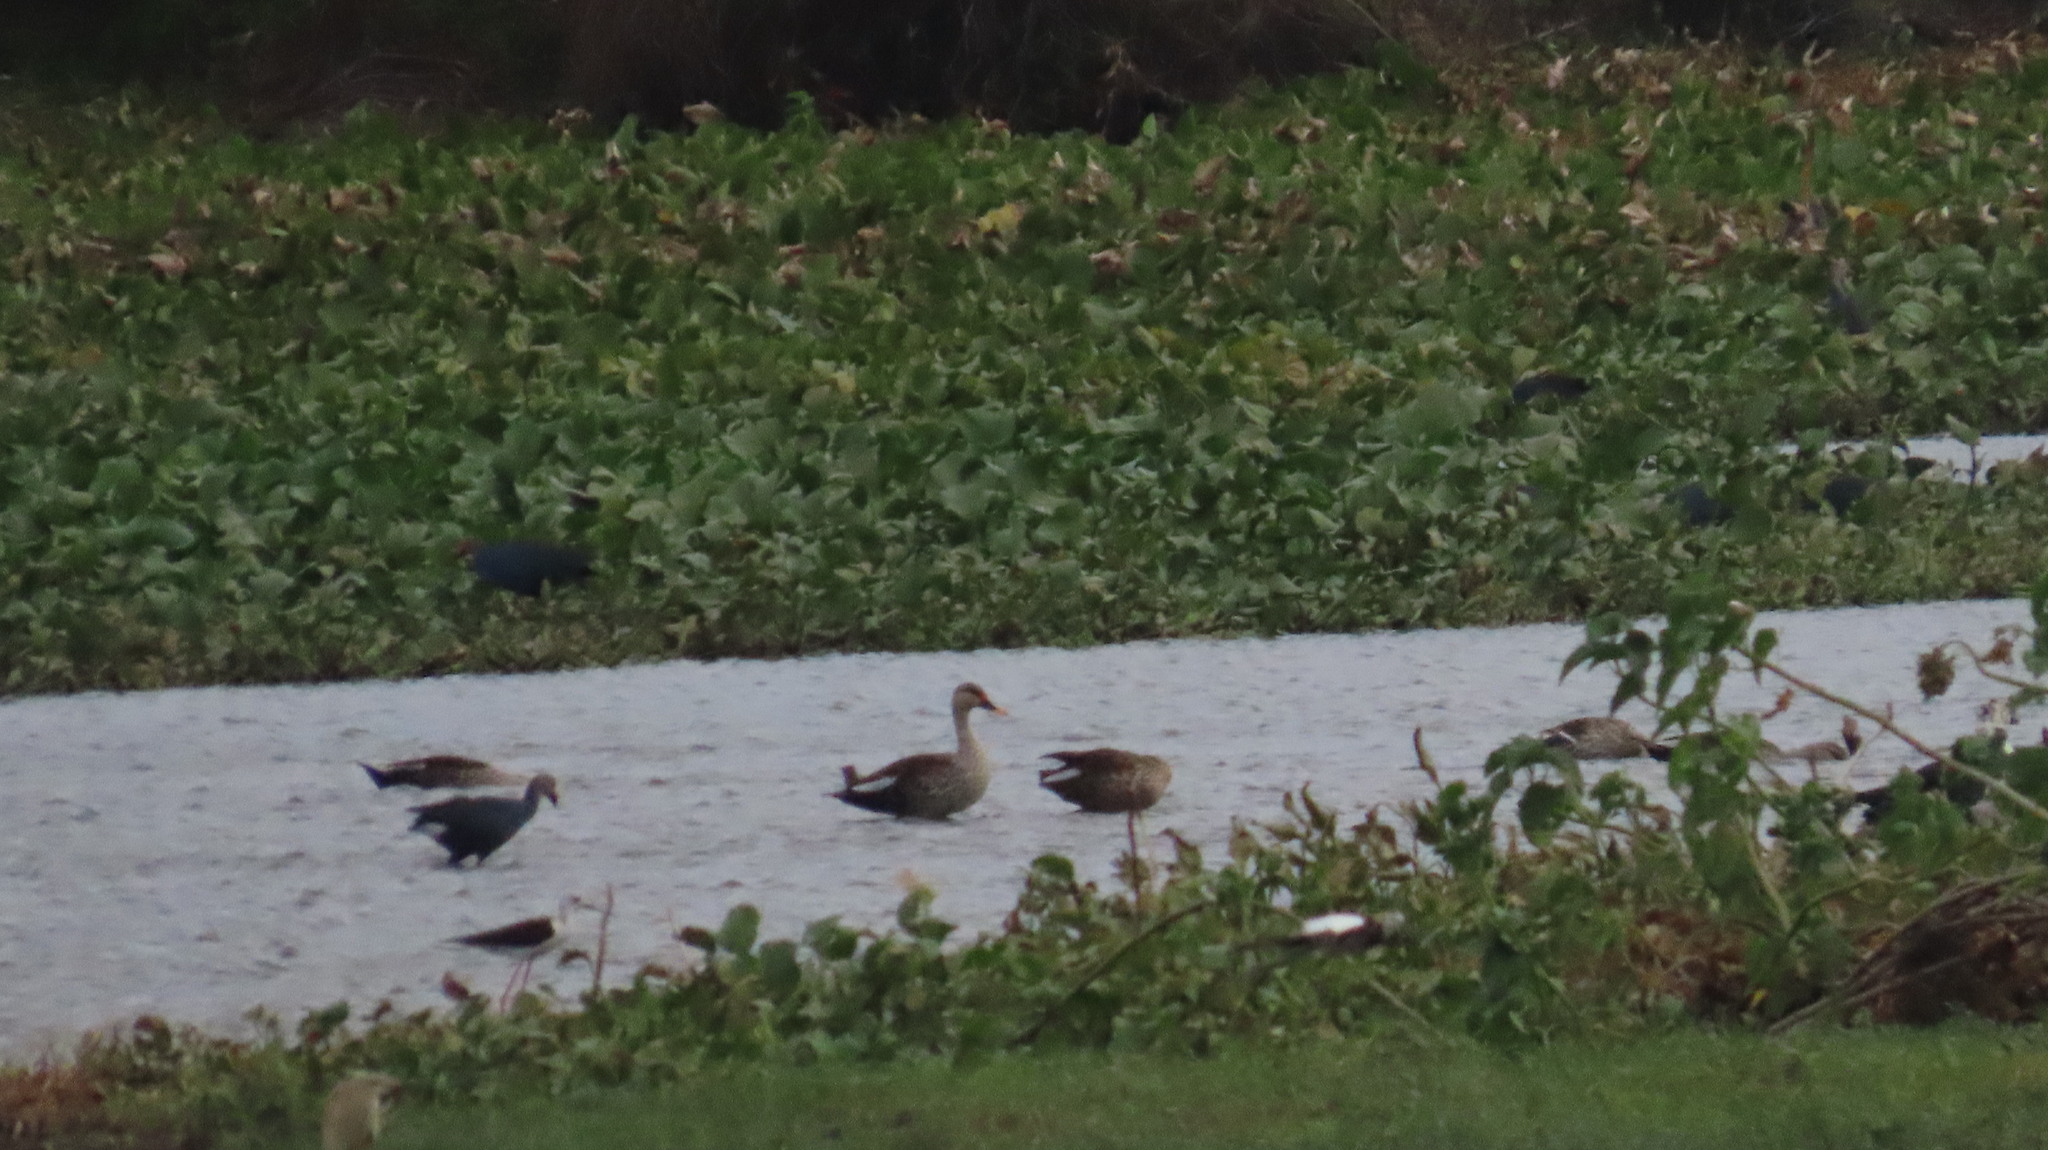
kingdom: Animalia
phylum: Chordata
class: Aves
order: Anseriformes
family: Anatidae
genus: Anas
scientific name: Anas poecilorhyncha
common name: Indian spot-billed duck
